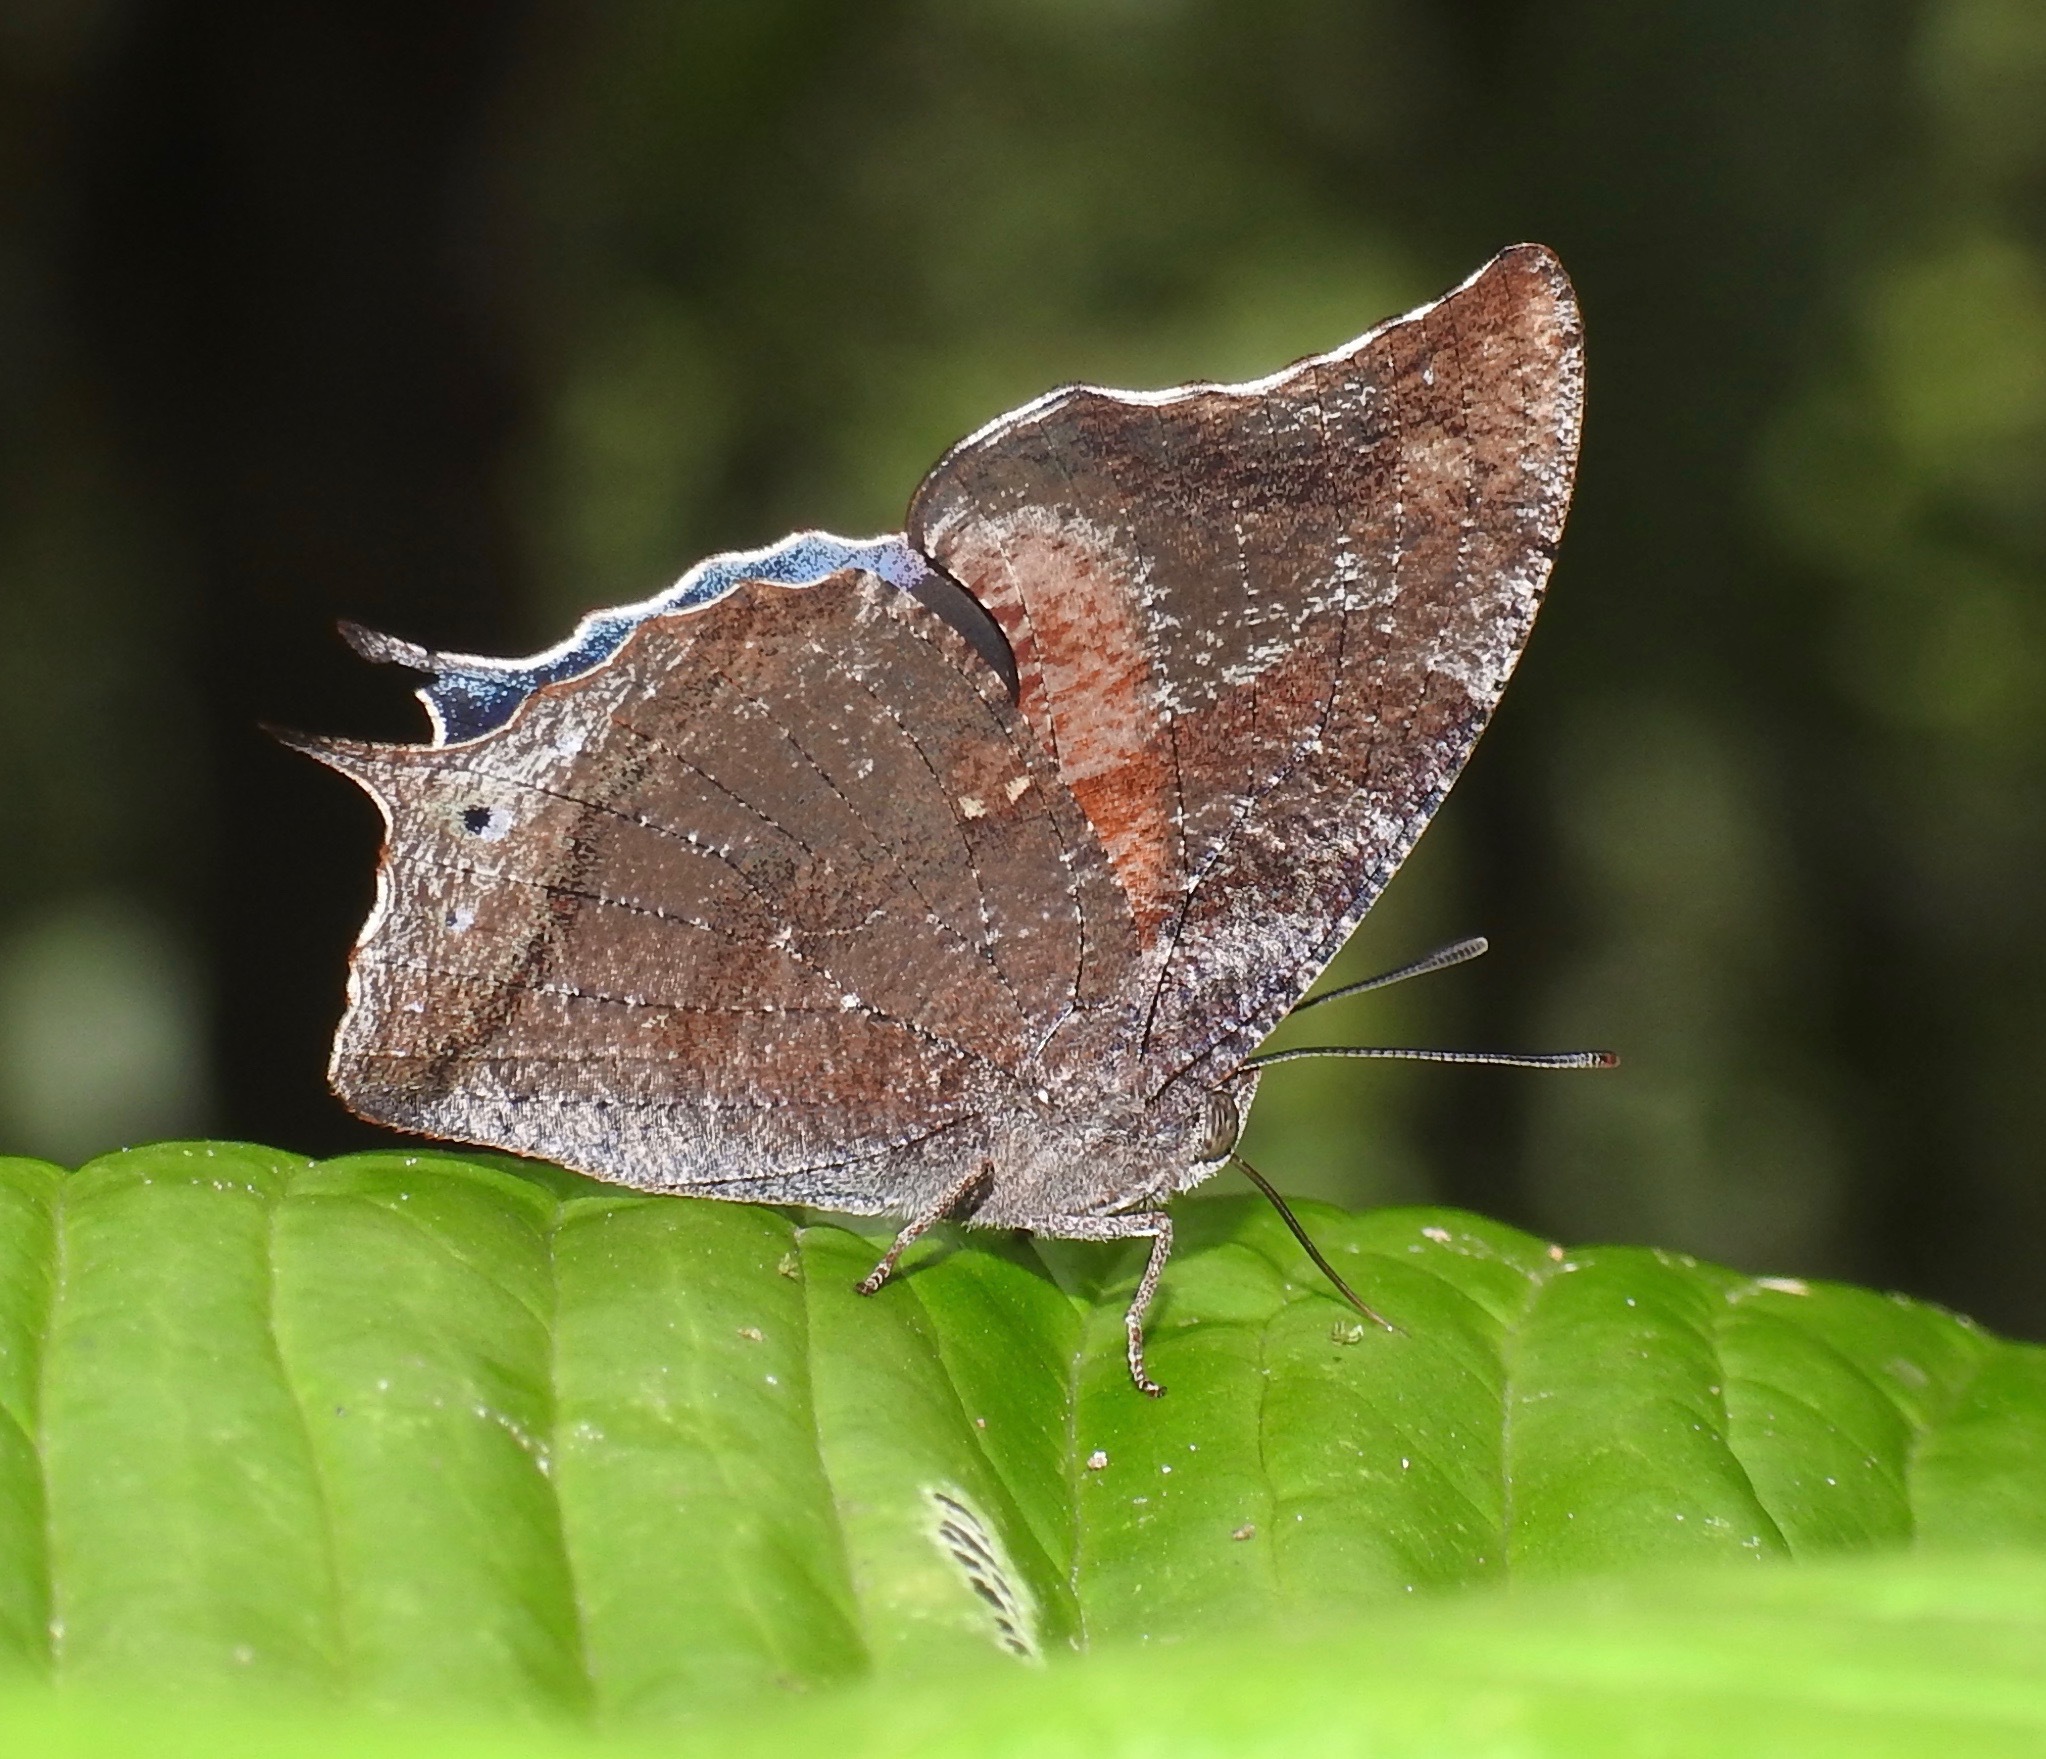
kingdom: Animalia
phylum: Arthropoda
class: Insecta
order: Lepidoptera
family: Nymphalidae
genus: Memphis
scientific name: Memphis perenna
